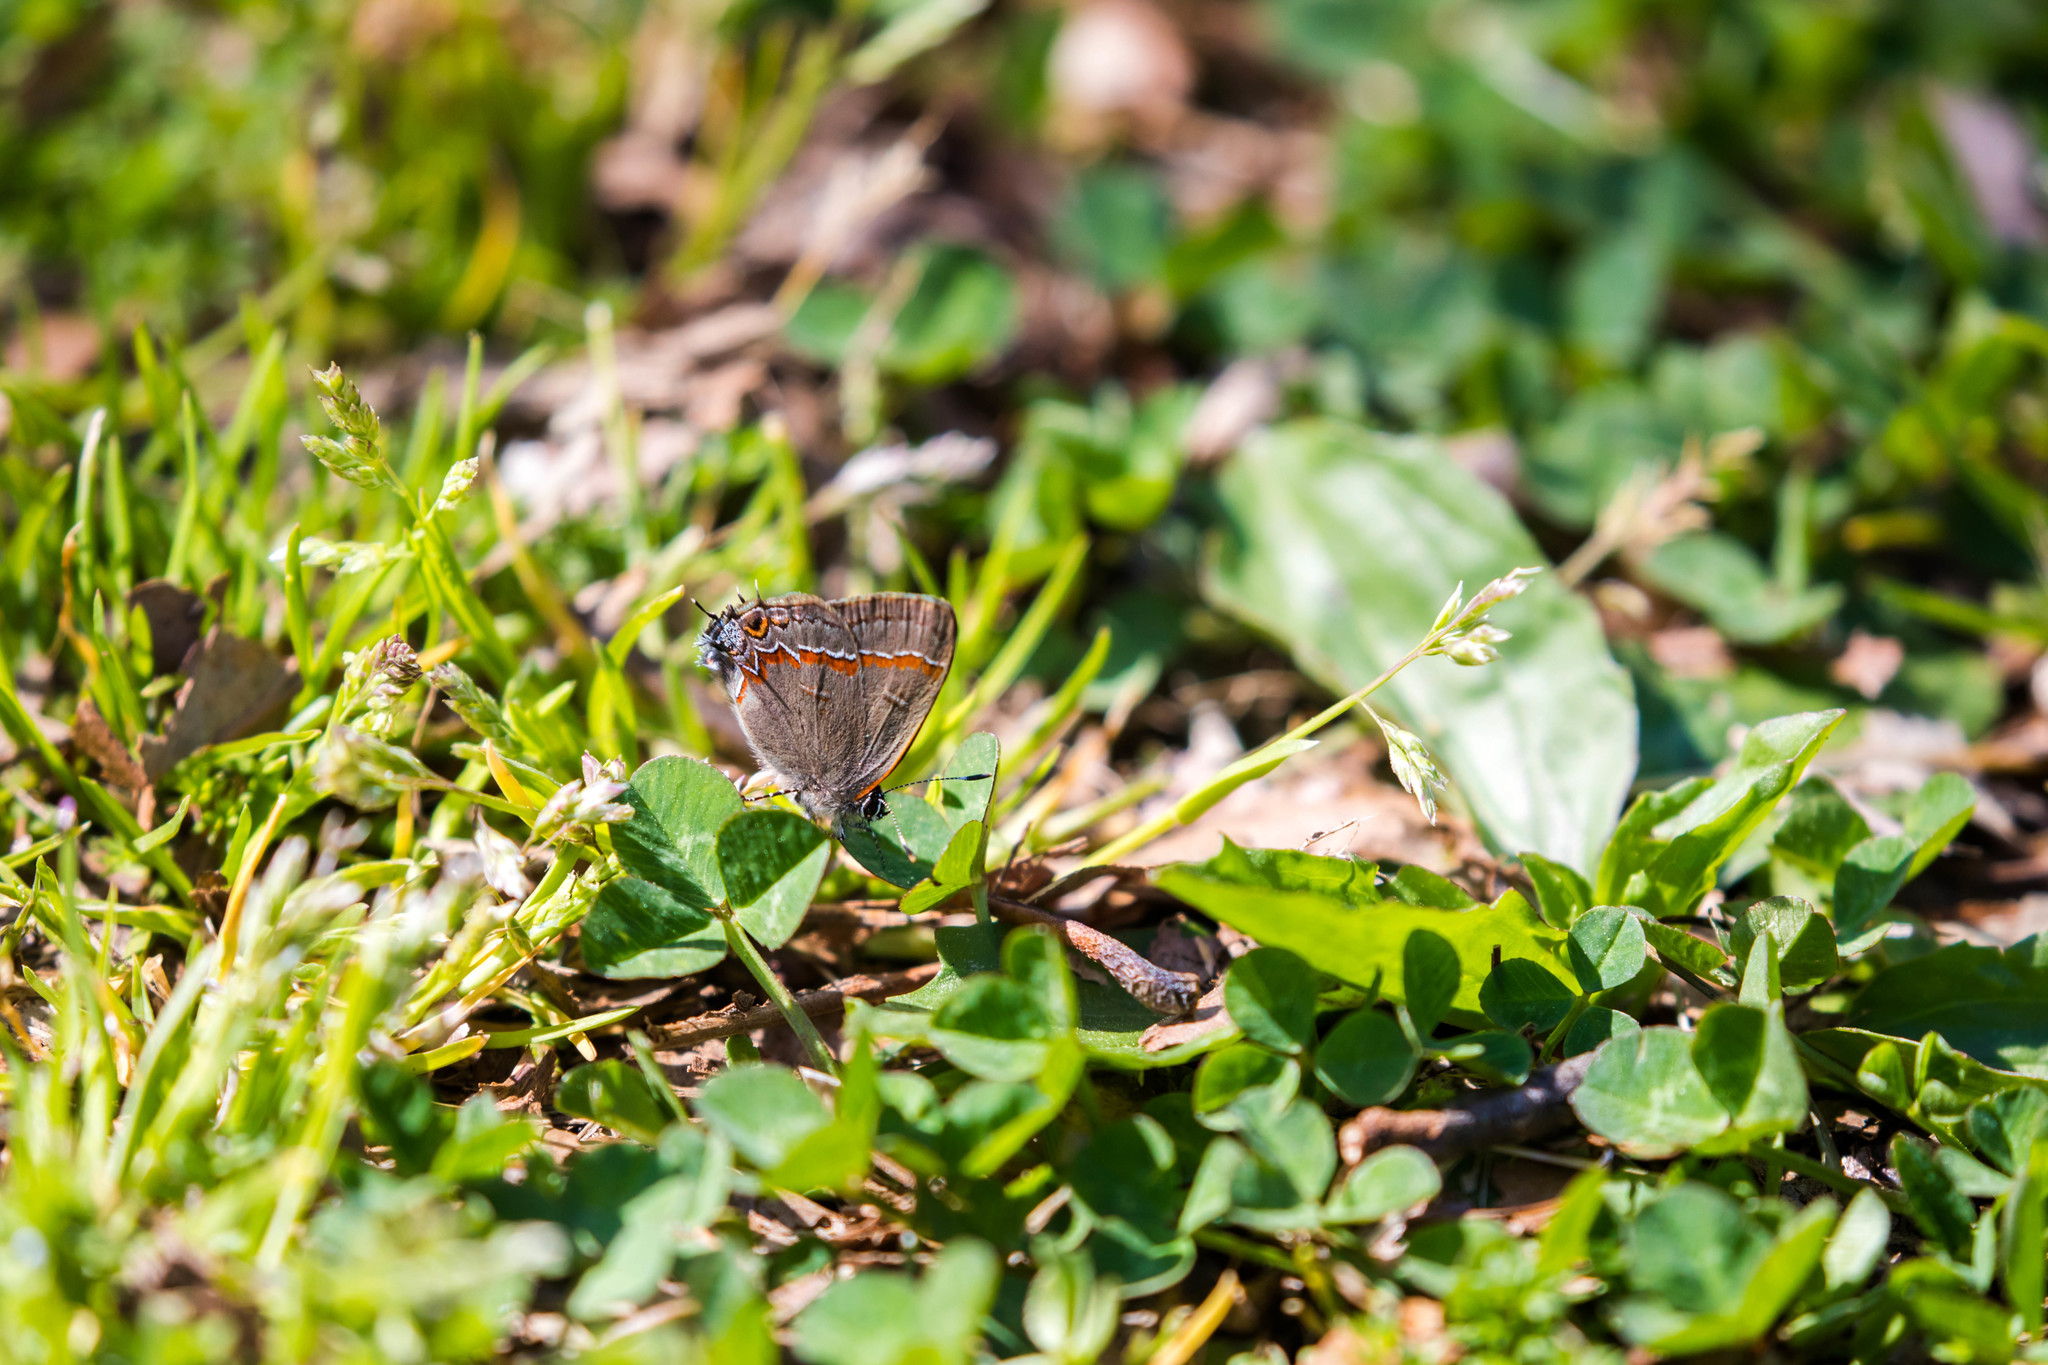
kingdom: Animalia
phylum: Arthropoda
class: Insecta
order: Lepidoptera
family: Lycaenidae
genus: Calycopis
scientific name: Calycopis cecrops
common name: Red-banded hairstreak
